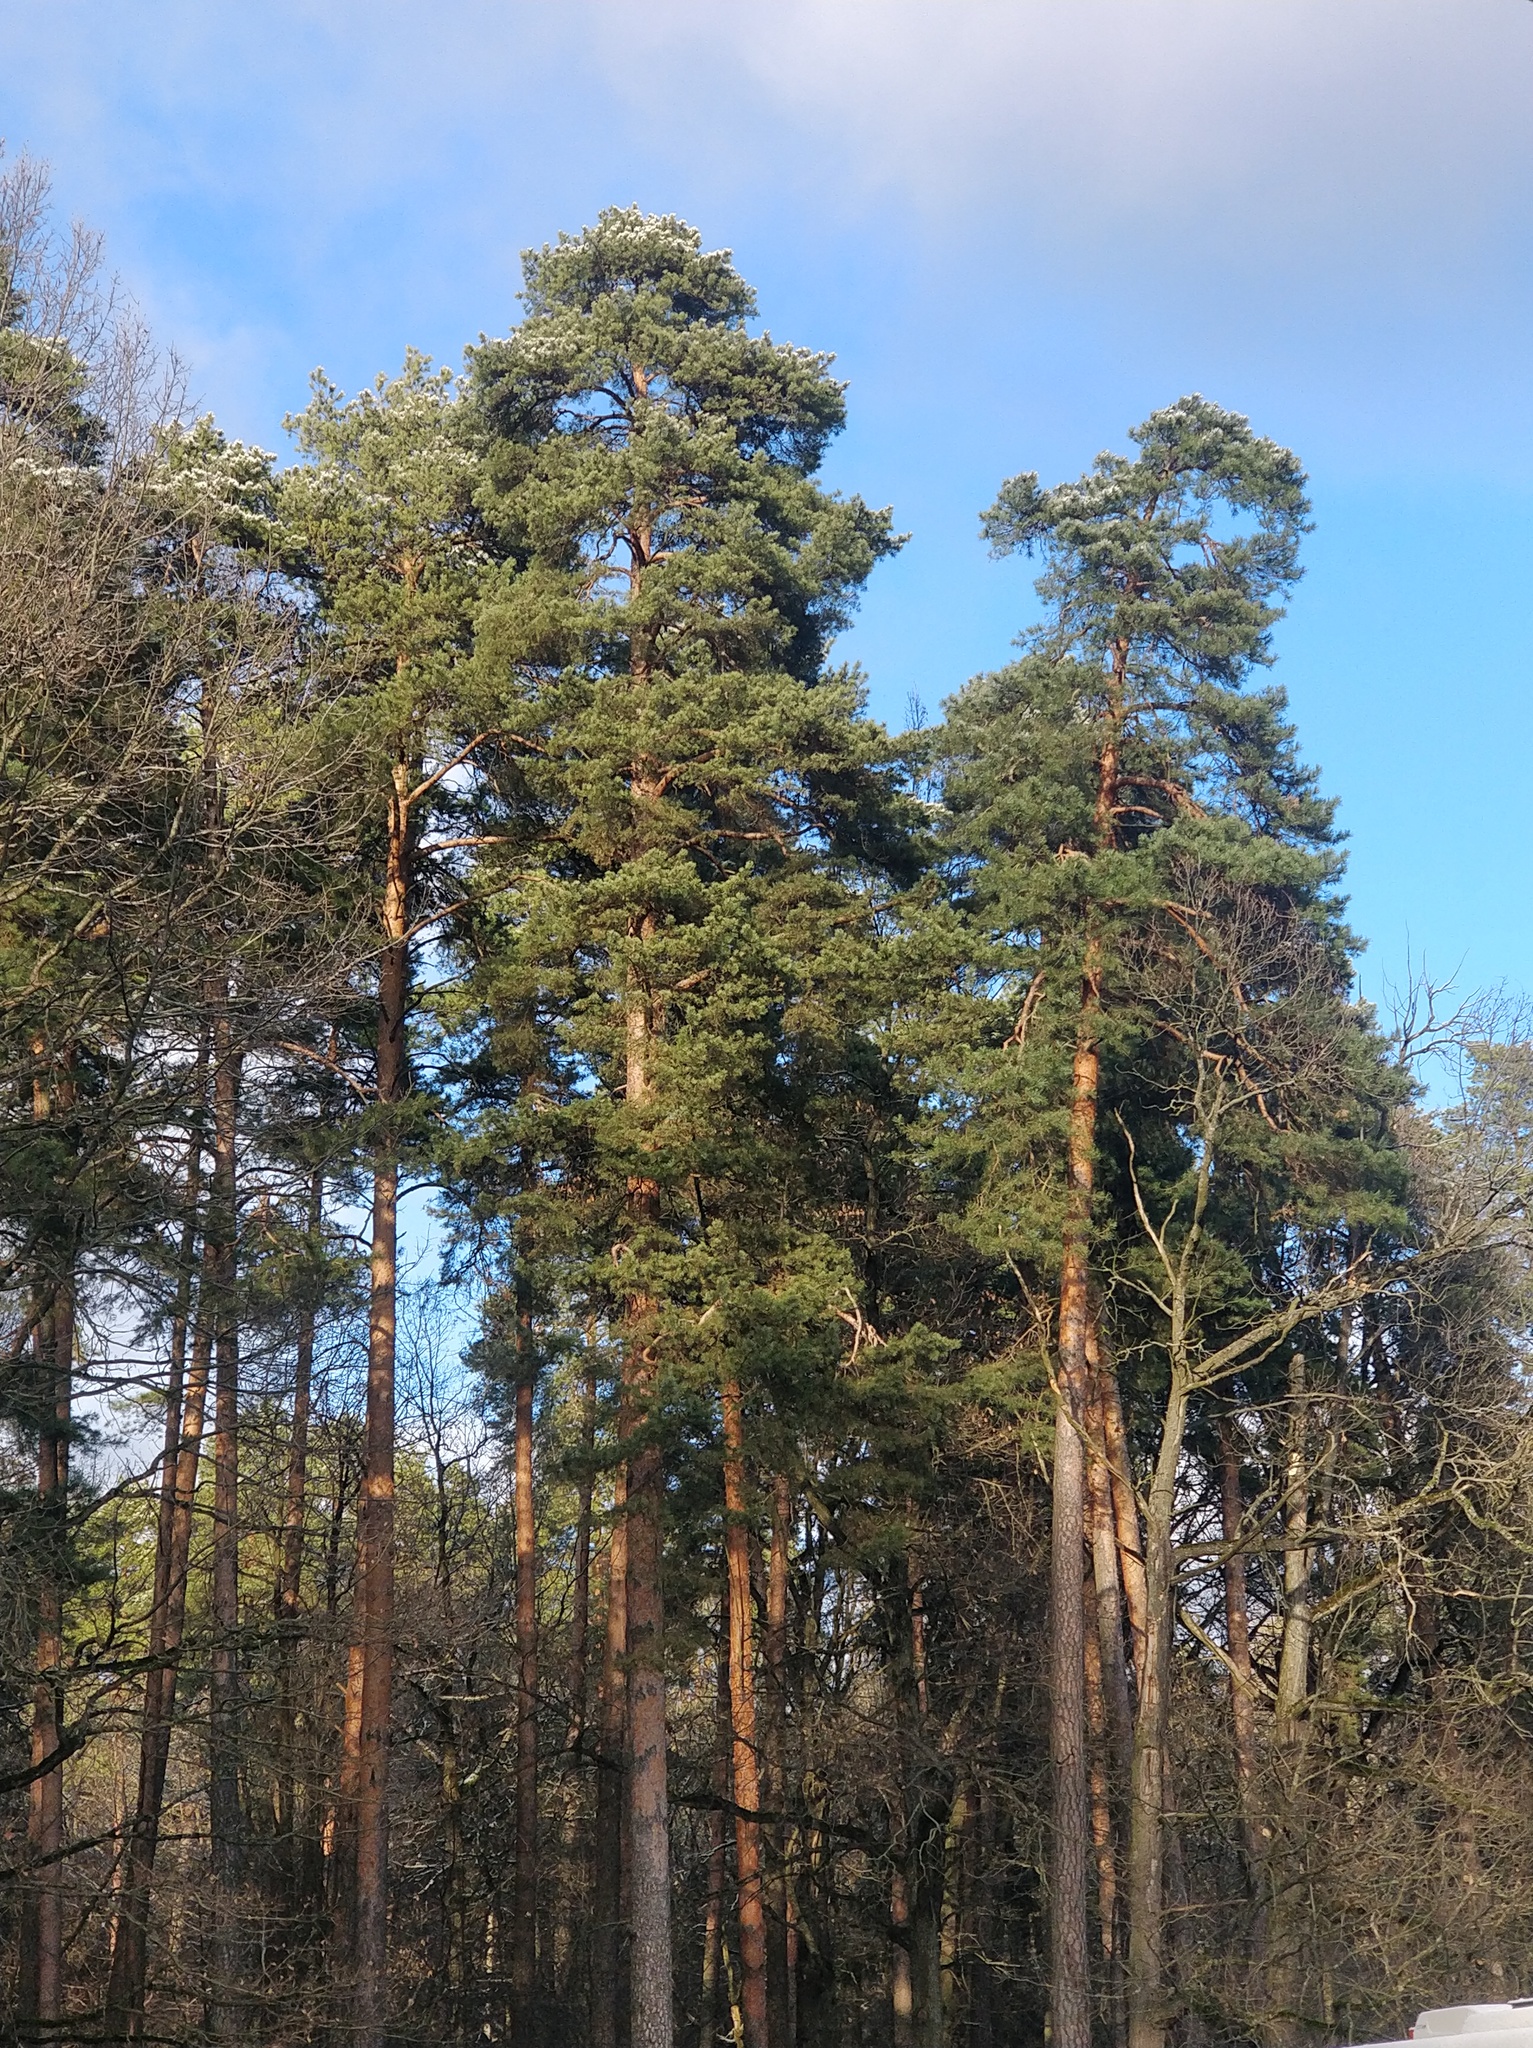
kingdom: Plantae
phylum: Tracheophyta
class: Pinopsida
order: Pinales
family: Pinaceae
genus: Pinus
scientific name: Pinus sylvestris
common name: Scots pine
